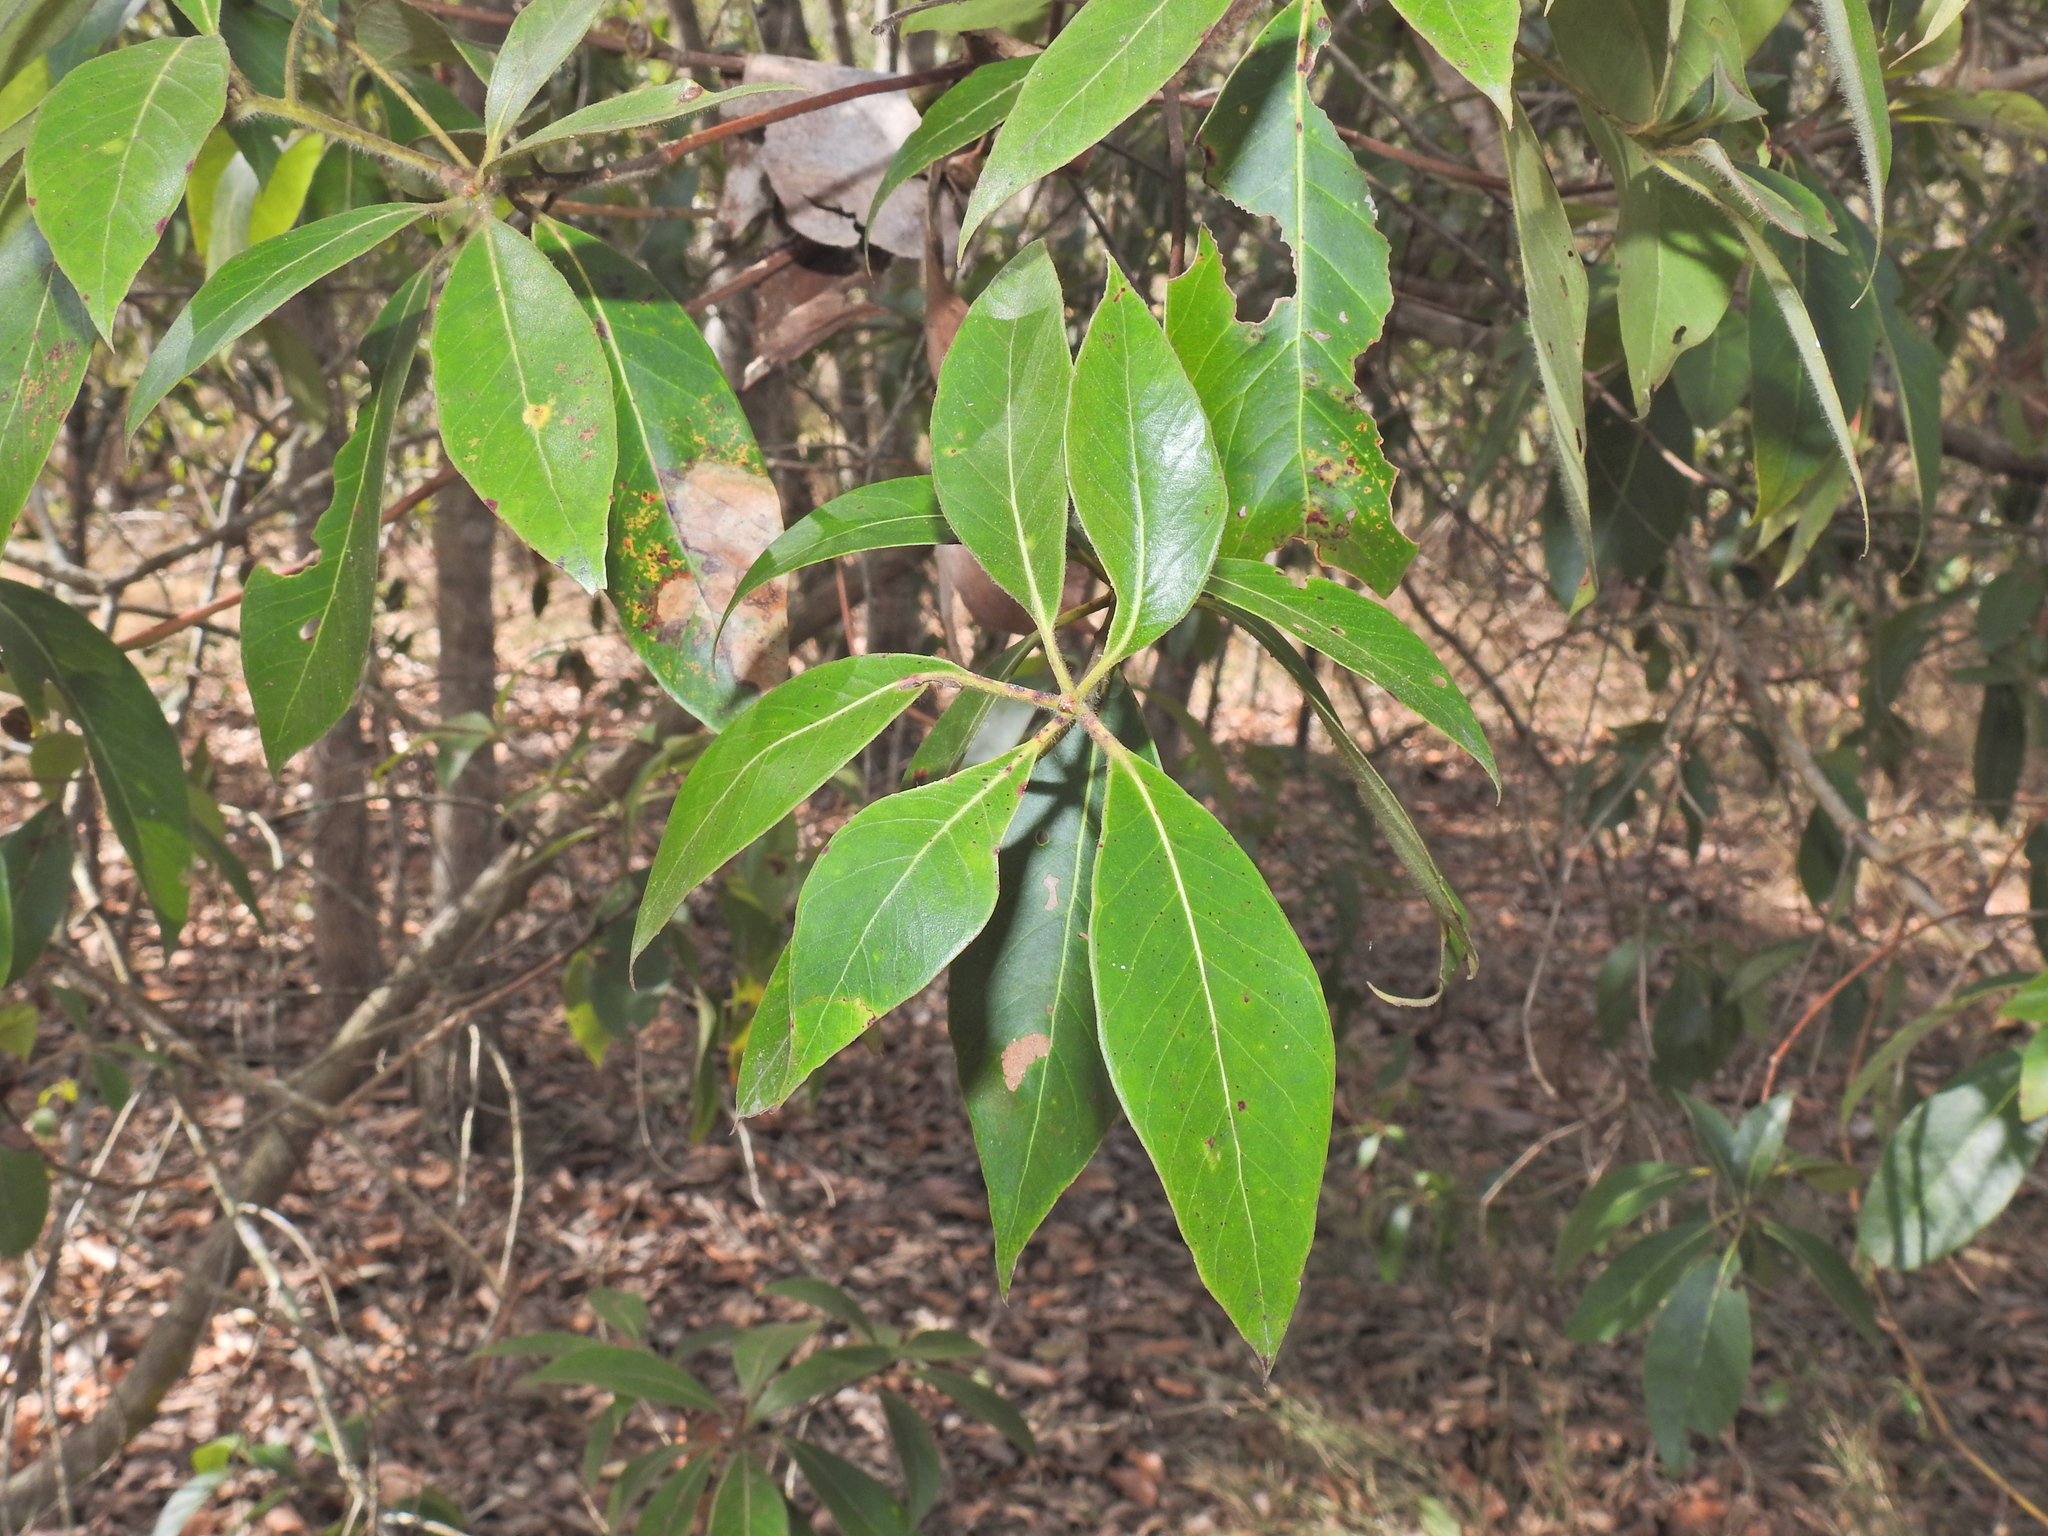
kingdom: Plantae
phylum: Tracheophyta
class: Magnoliopsida
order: Myrtales
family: Myrtaceae
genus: Lophostemon
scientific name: Lophostemon confertus
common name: Brisbane box
